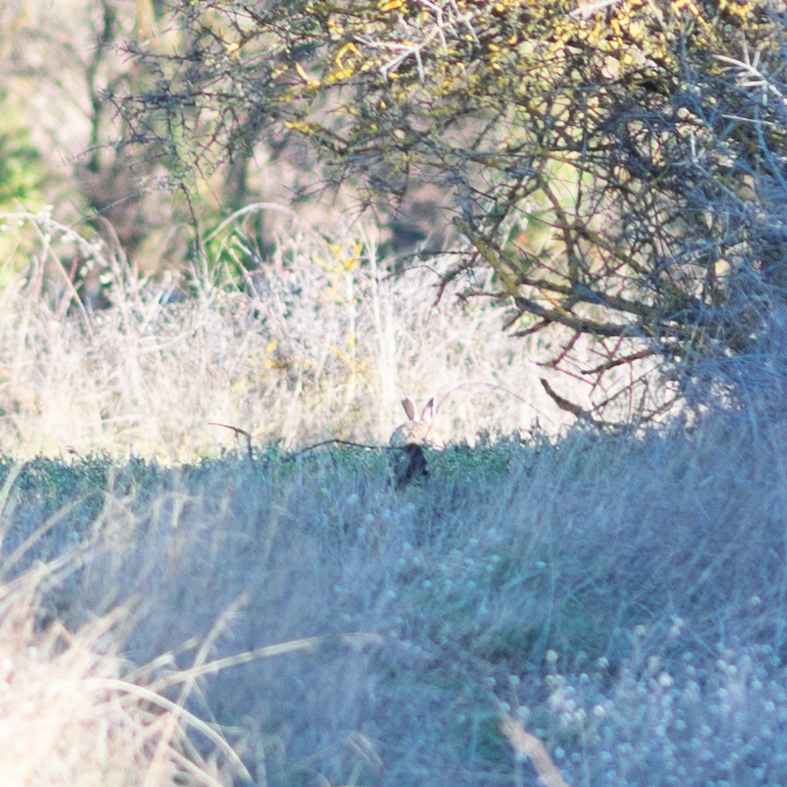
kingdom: Animalia
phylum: Chordata
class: Mammalia
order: Lagomorpha
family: Leporidae
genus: Oryctolagus
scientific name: Oryctolagus cuniculus
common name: European rabbit
